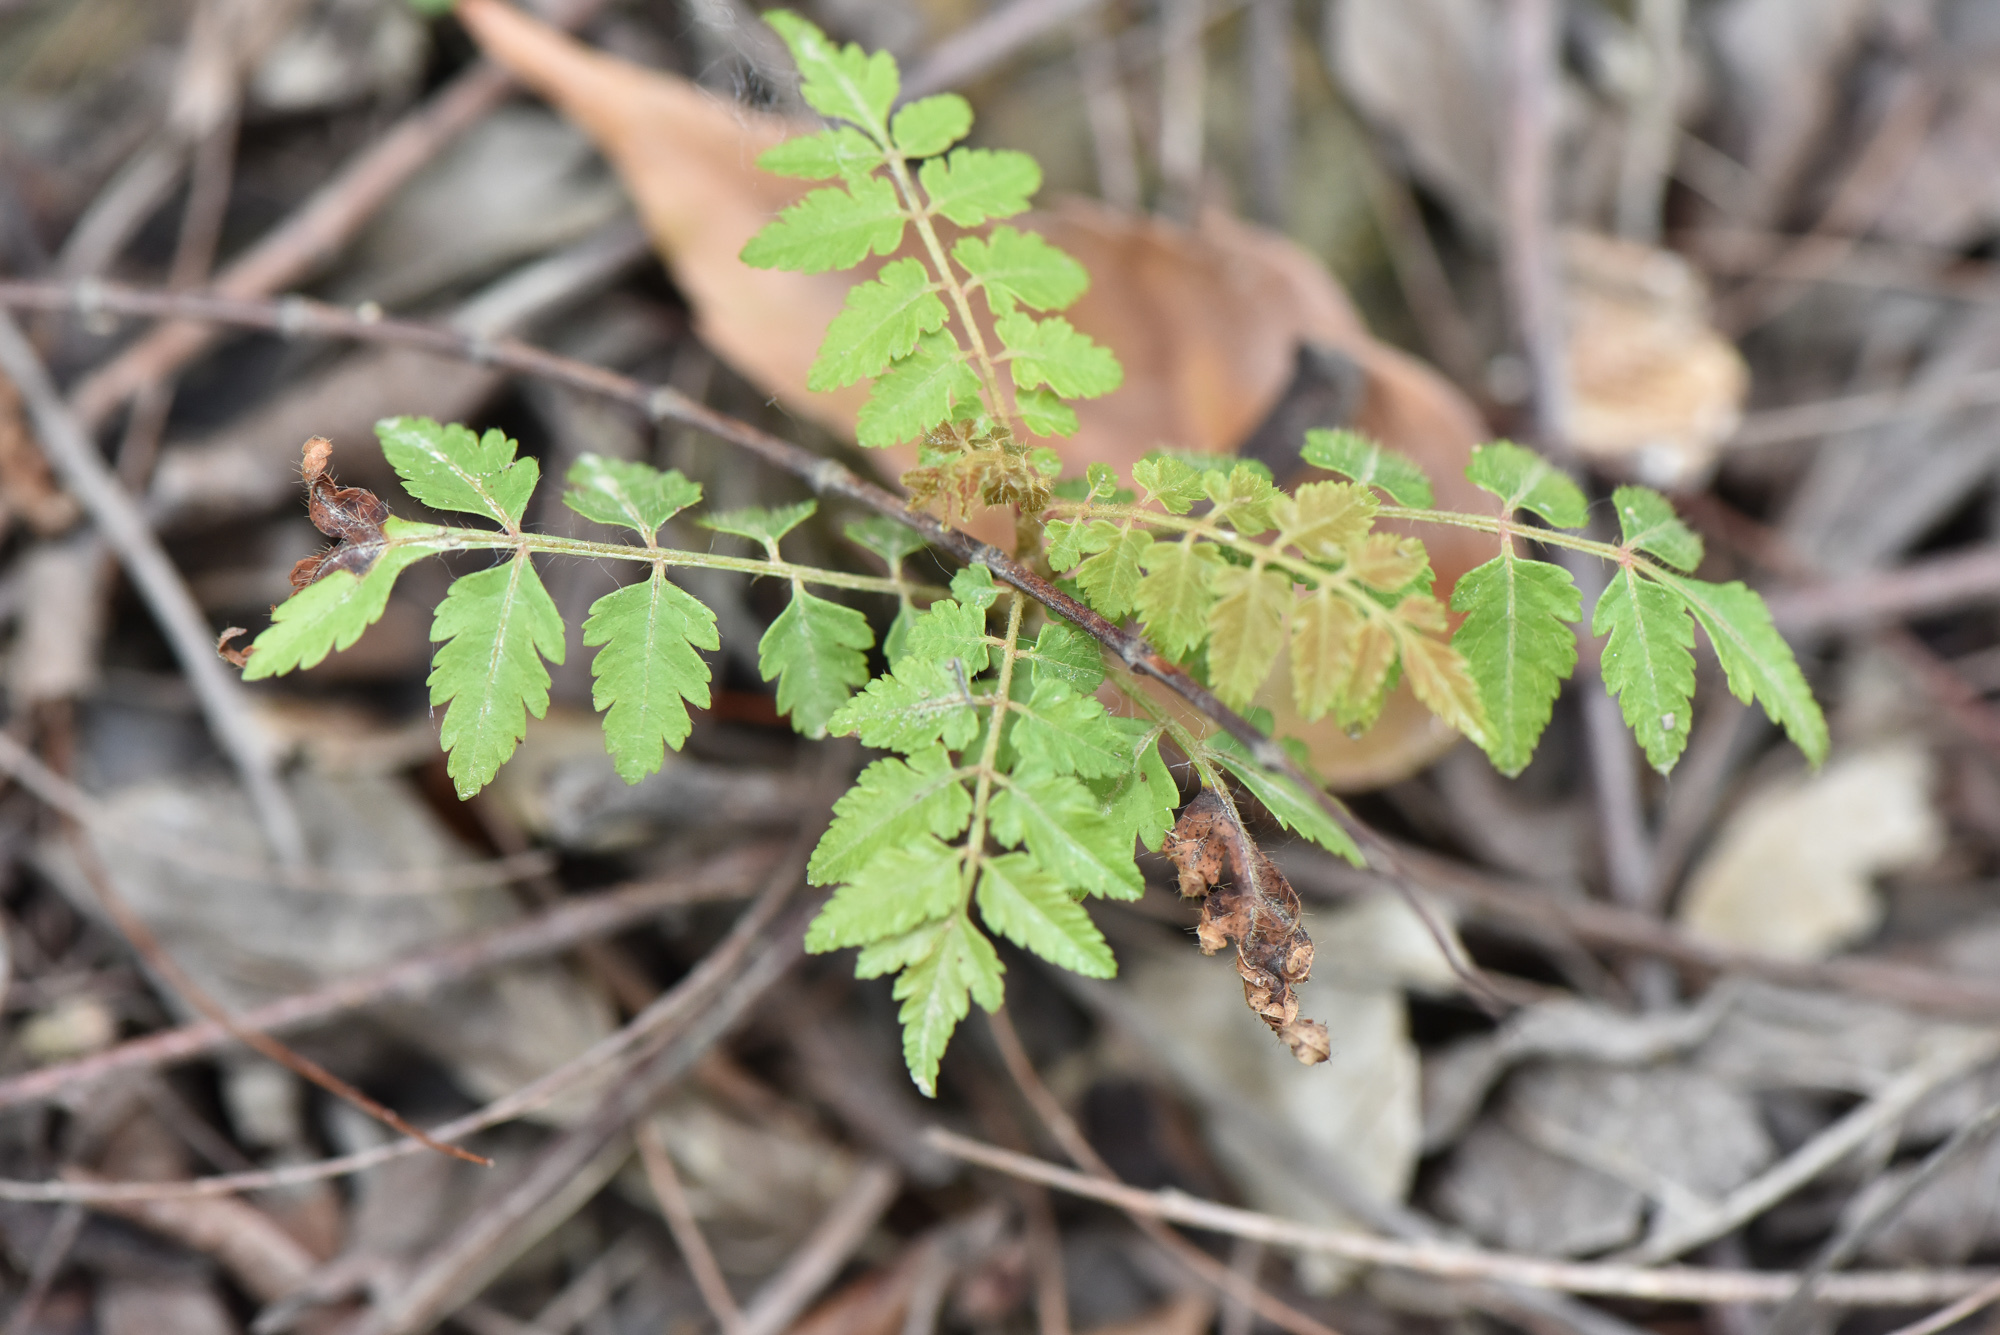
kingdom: Plantae
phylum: Tracheophyta
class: Magnoliopsida
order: Sapindales
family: Sapindaceae
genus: Koelreuteria
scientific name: Koelreuteria elegans
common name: Chinese flame tree
